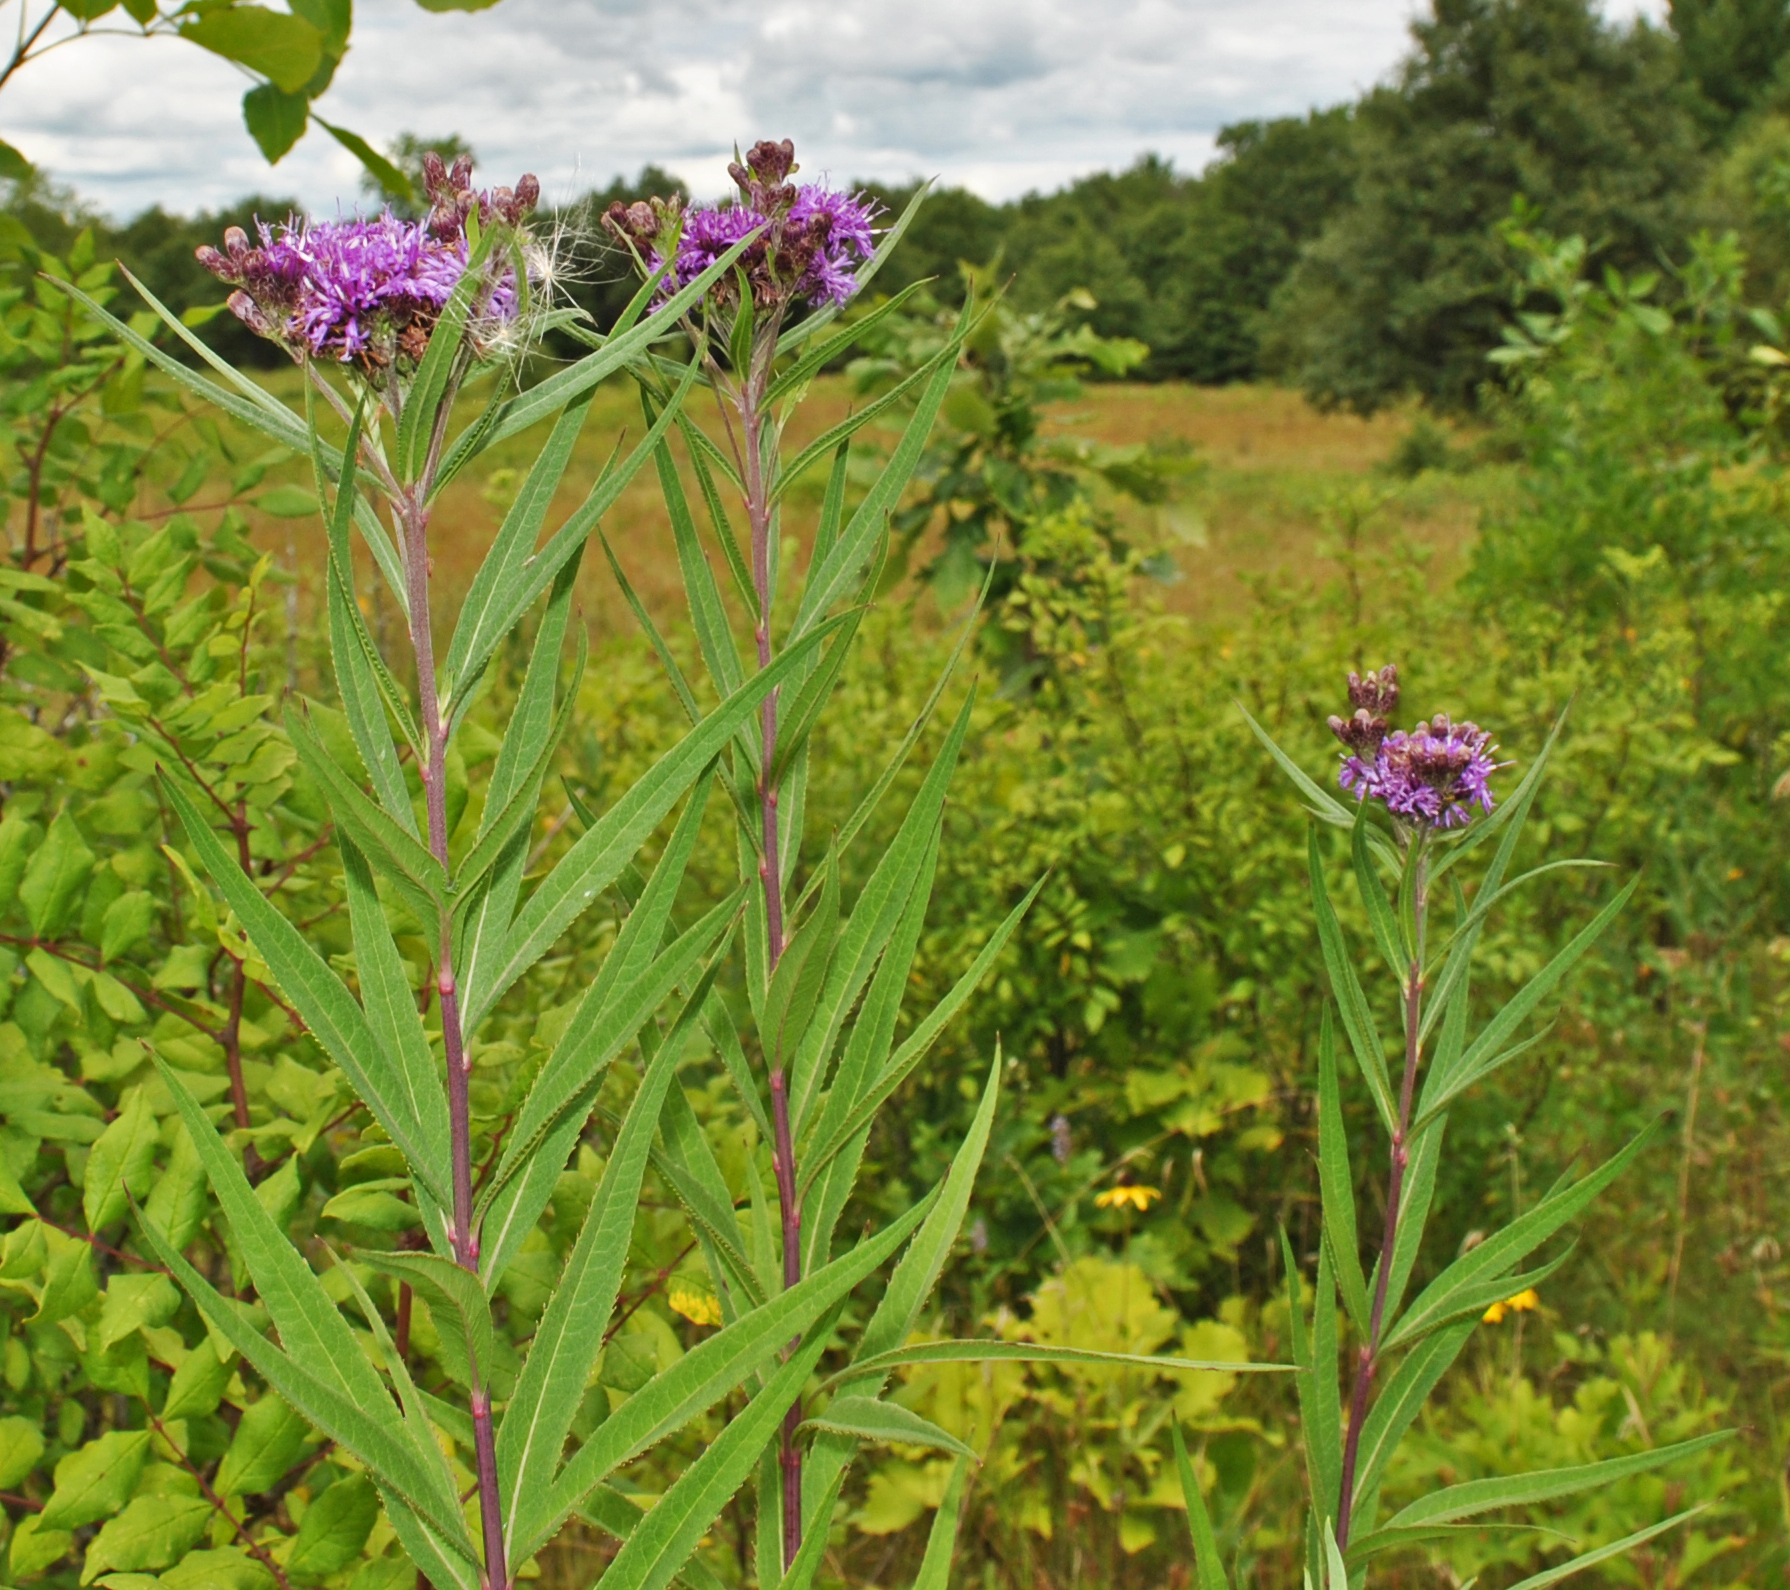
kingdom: Plantae
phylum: Tracheophyta
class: Magnoliopsida
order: Asterales
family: Asteraceae
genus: Vernonia
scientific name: Vernonia fasciculata
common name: Fascicled ironweed
